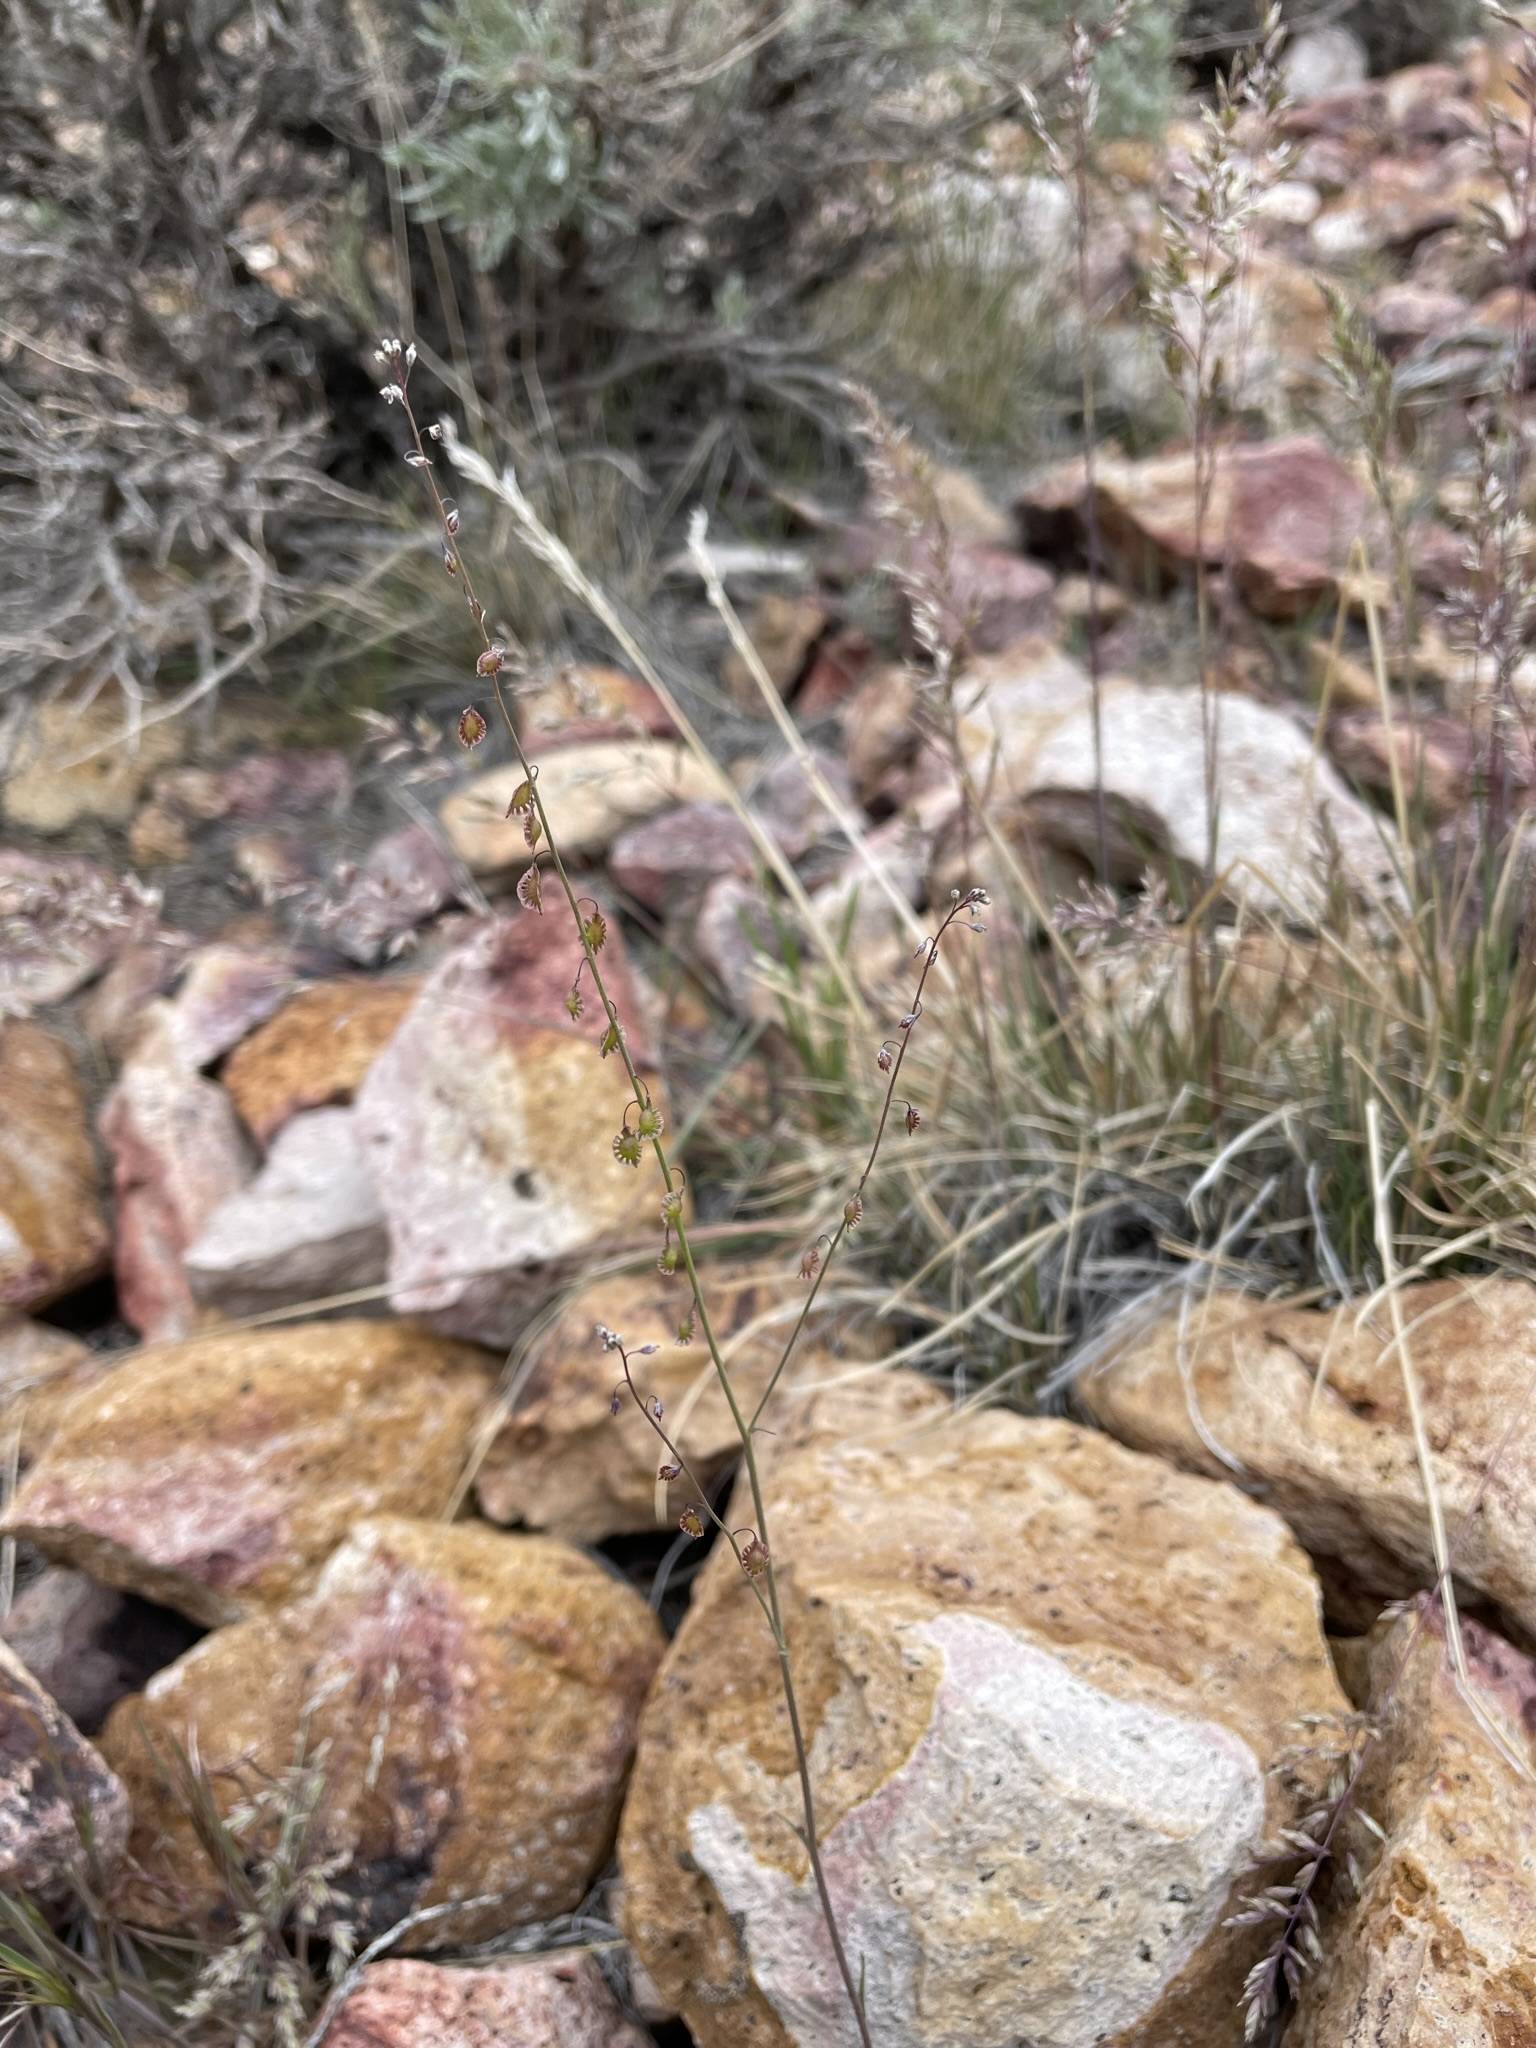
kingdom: Plantae
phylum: Tracheophyta
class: Magnoliopsida
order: Brassicales
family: Brassicaceae
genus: Thysanocarpus
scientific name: Thysanocarpus curvipes
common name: Sand fringepod
